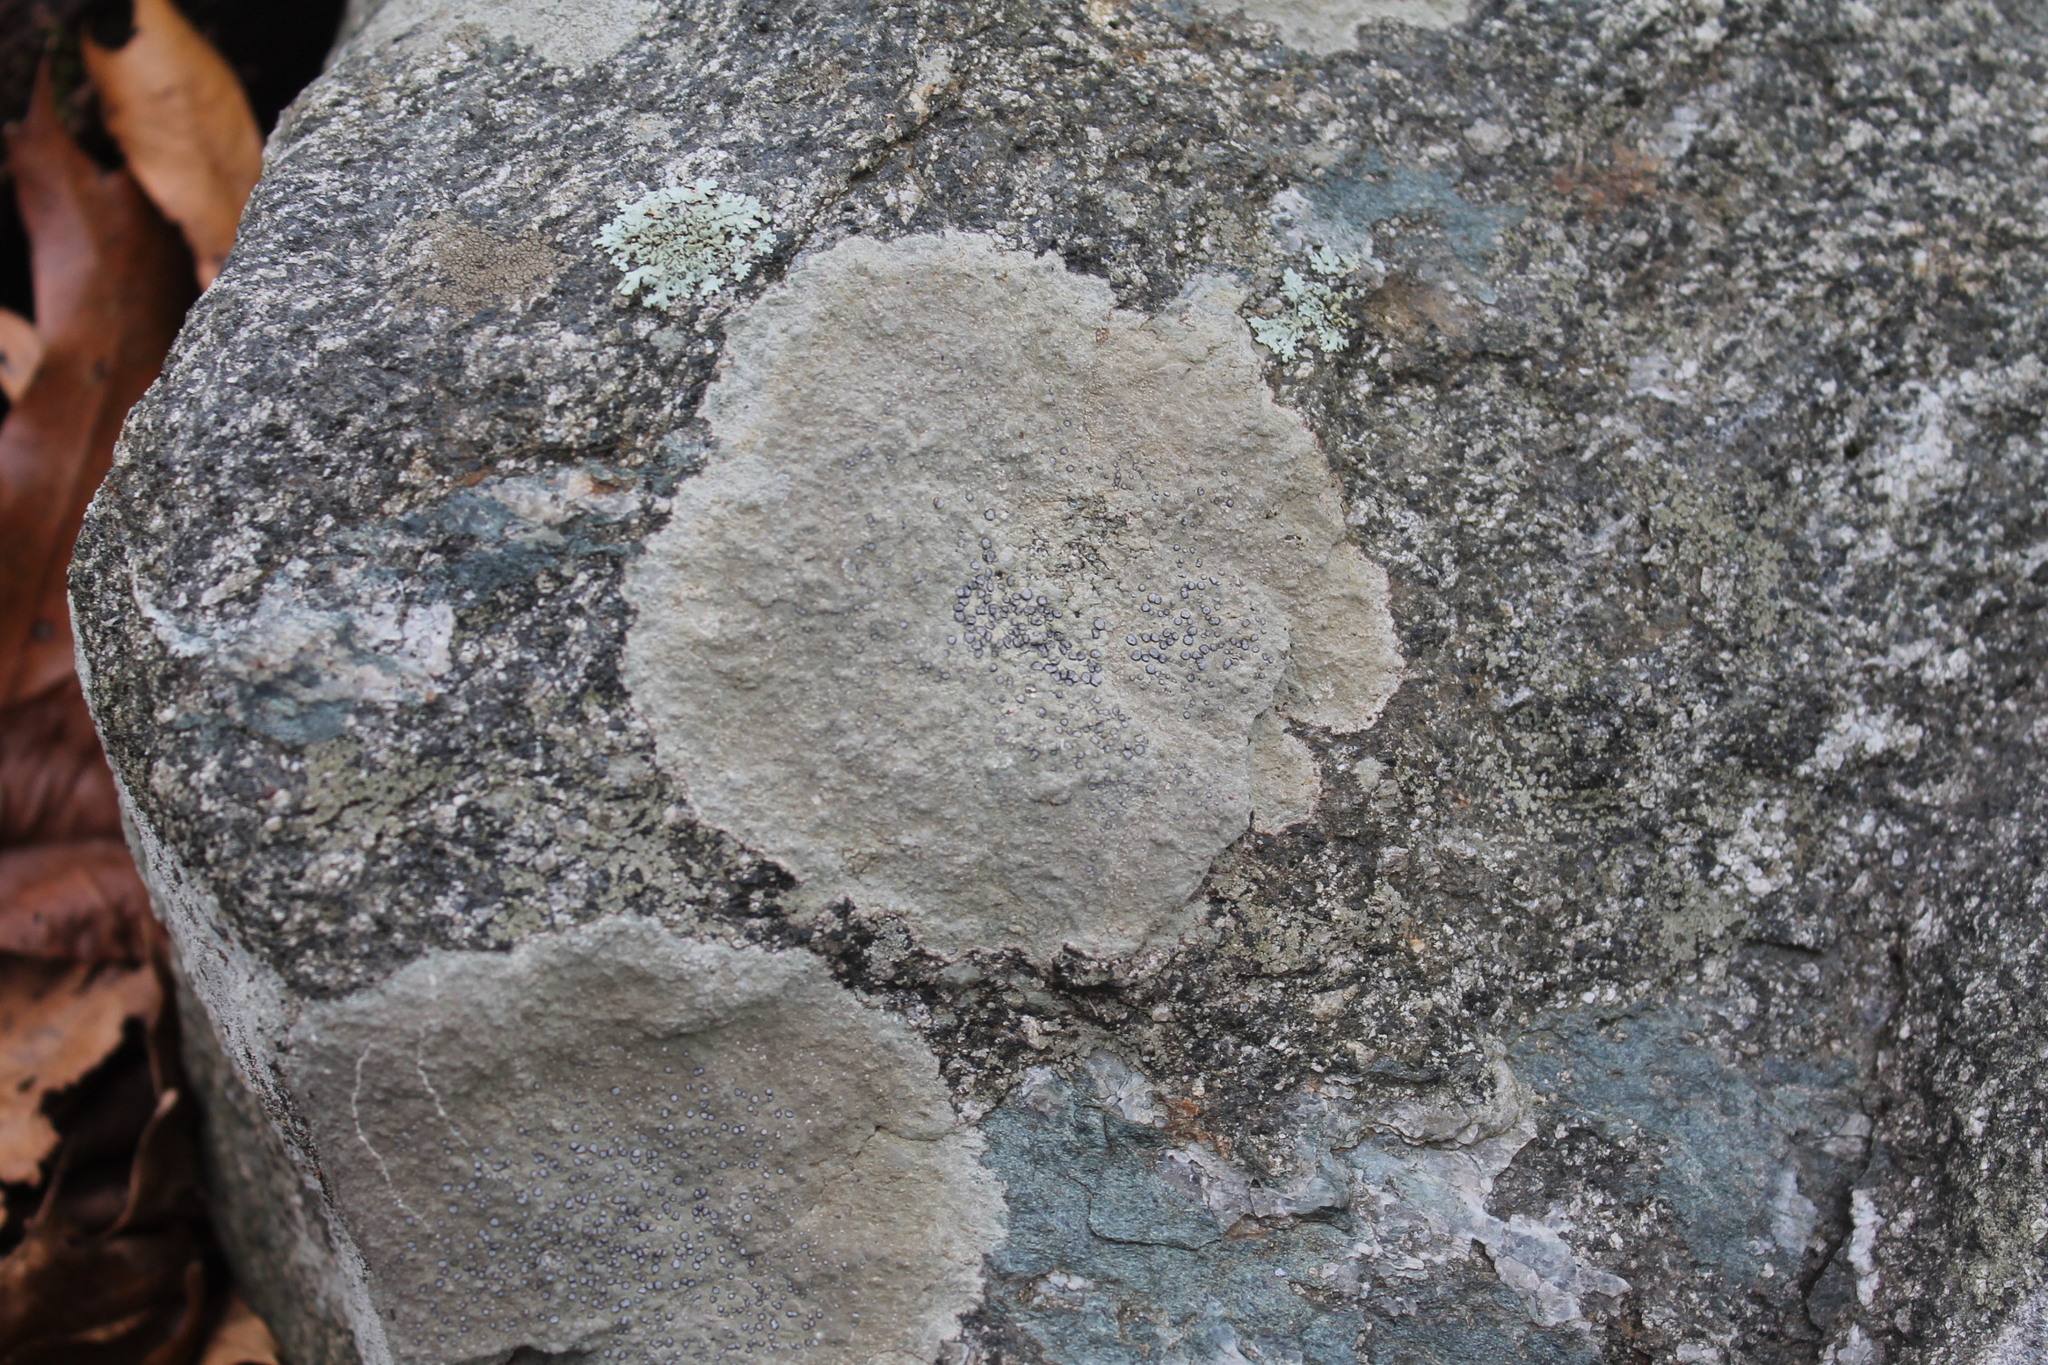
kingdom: Fungi
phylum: Ascomycota
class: Lecanoromycetes
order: Lecideales
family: Lecideaceae
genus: Porpidia
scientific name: Porpidia albocaerulescens
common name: Smokey-eyed boulder lichen
